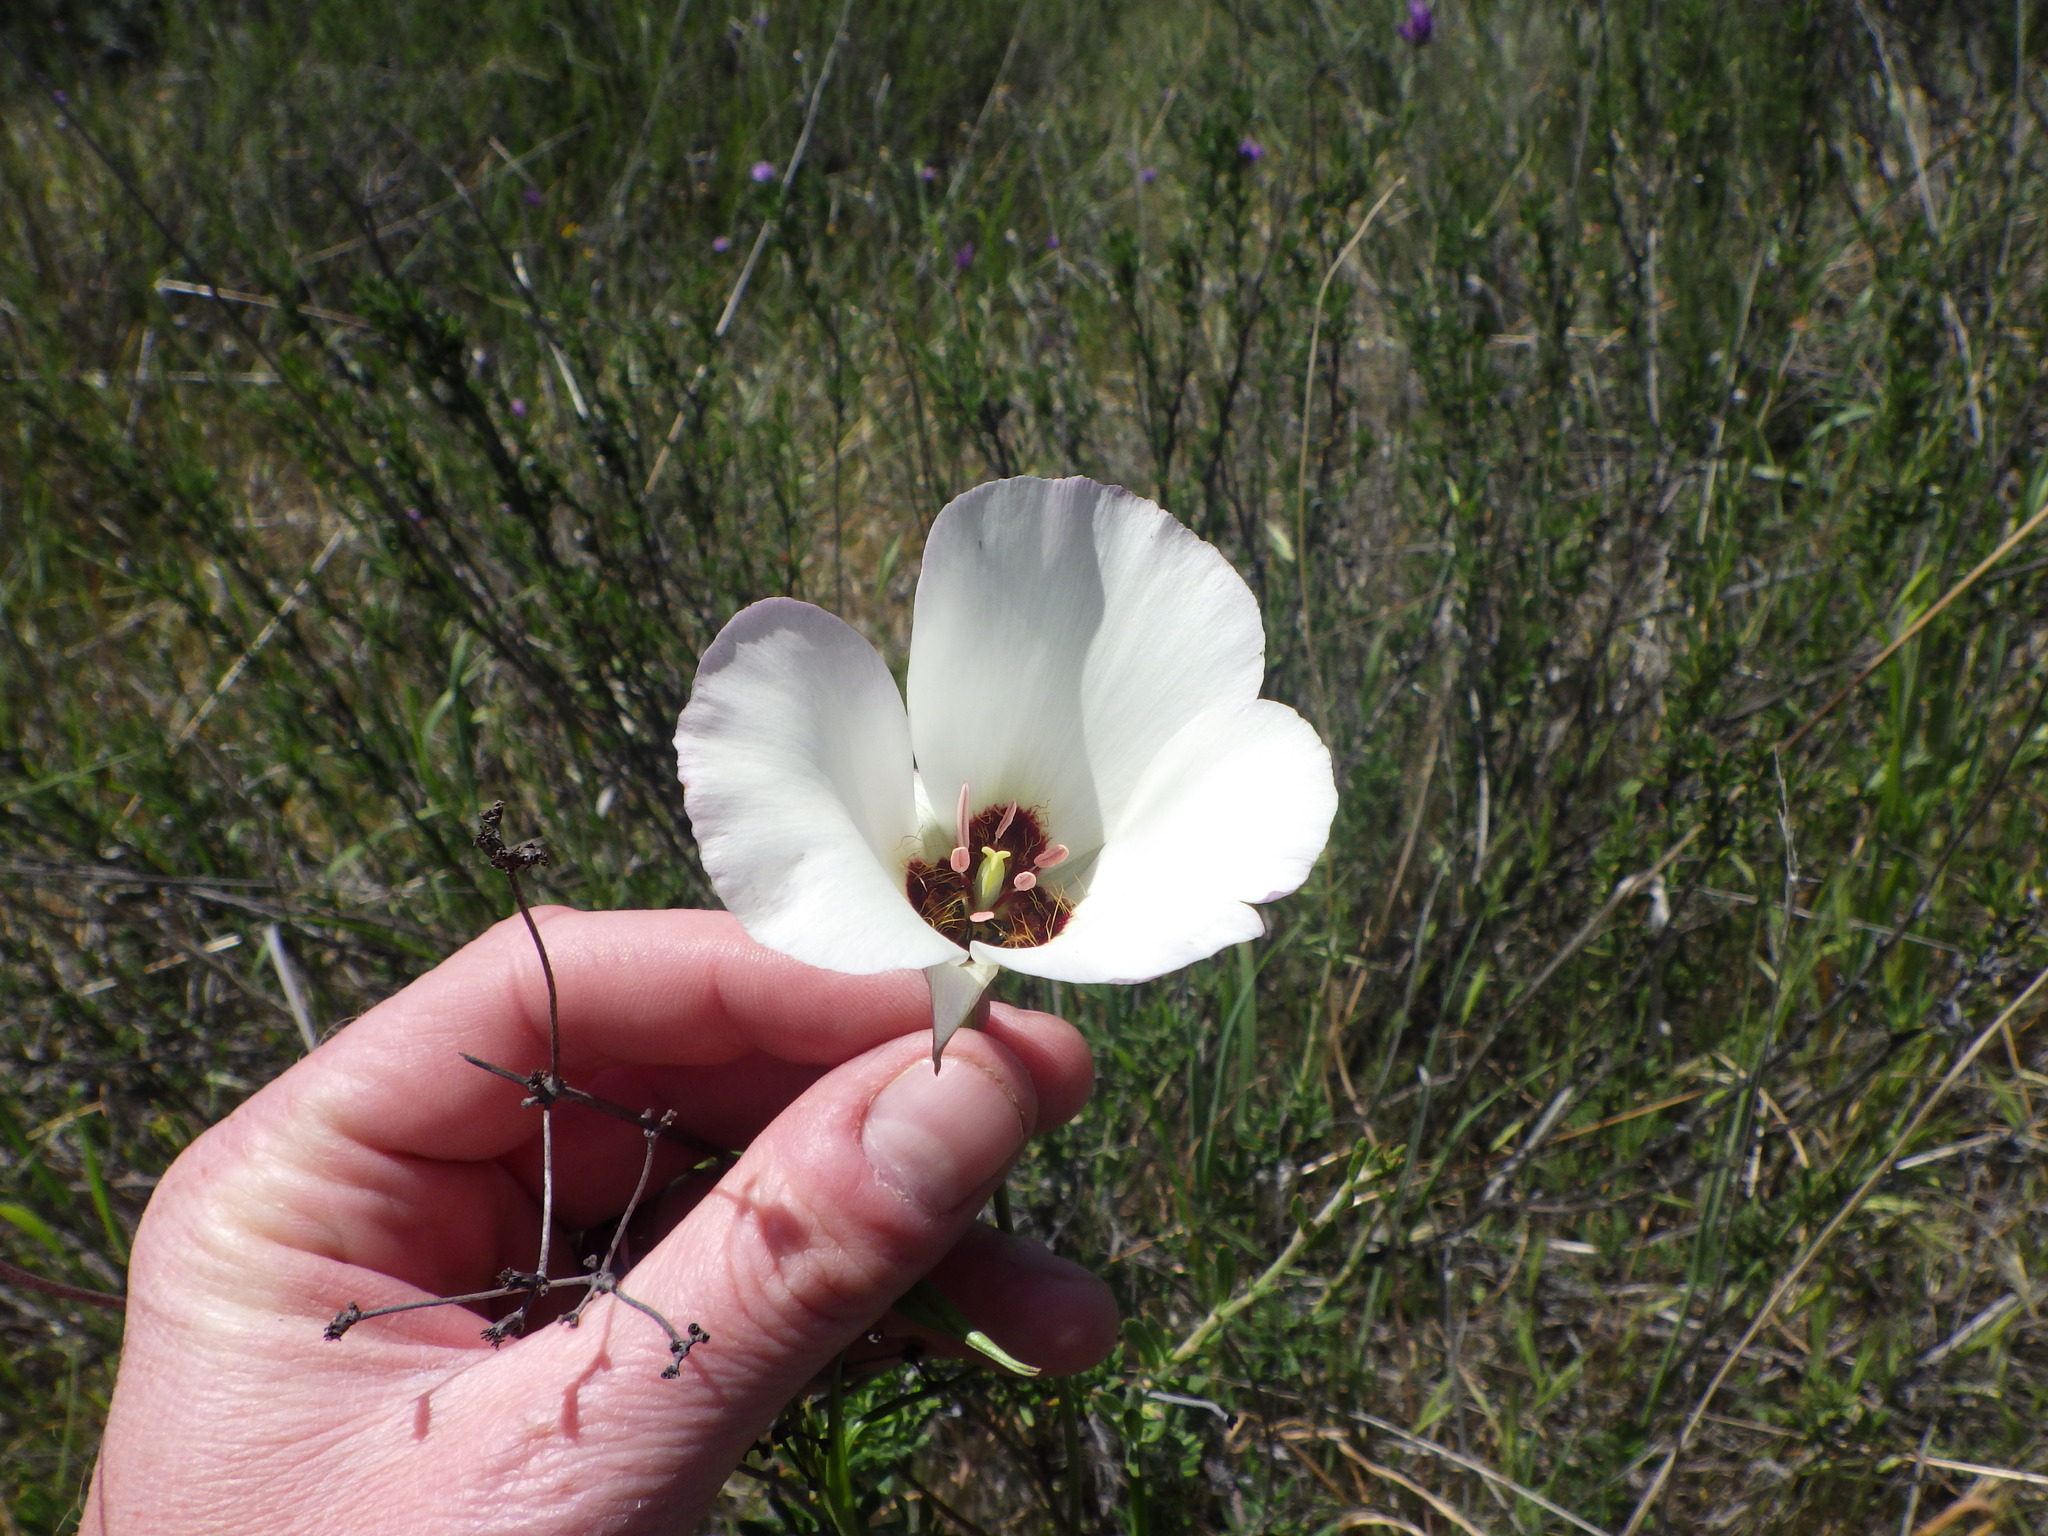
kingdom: Plantae
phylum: Tracheophyta
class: Liliopsida
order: Liliales
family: Liliaceae
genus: Calochortus
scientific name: Calochortus catalinae
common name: Catalina mariposa-lily
